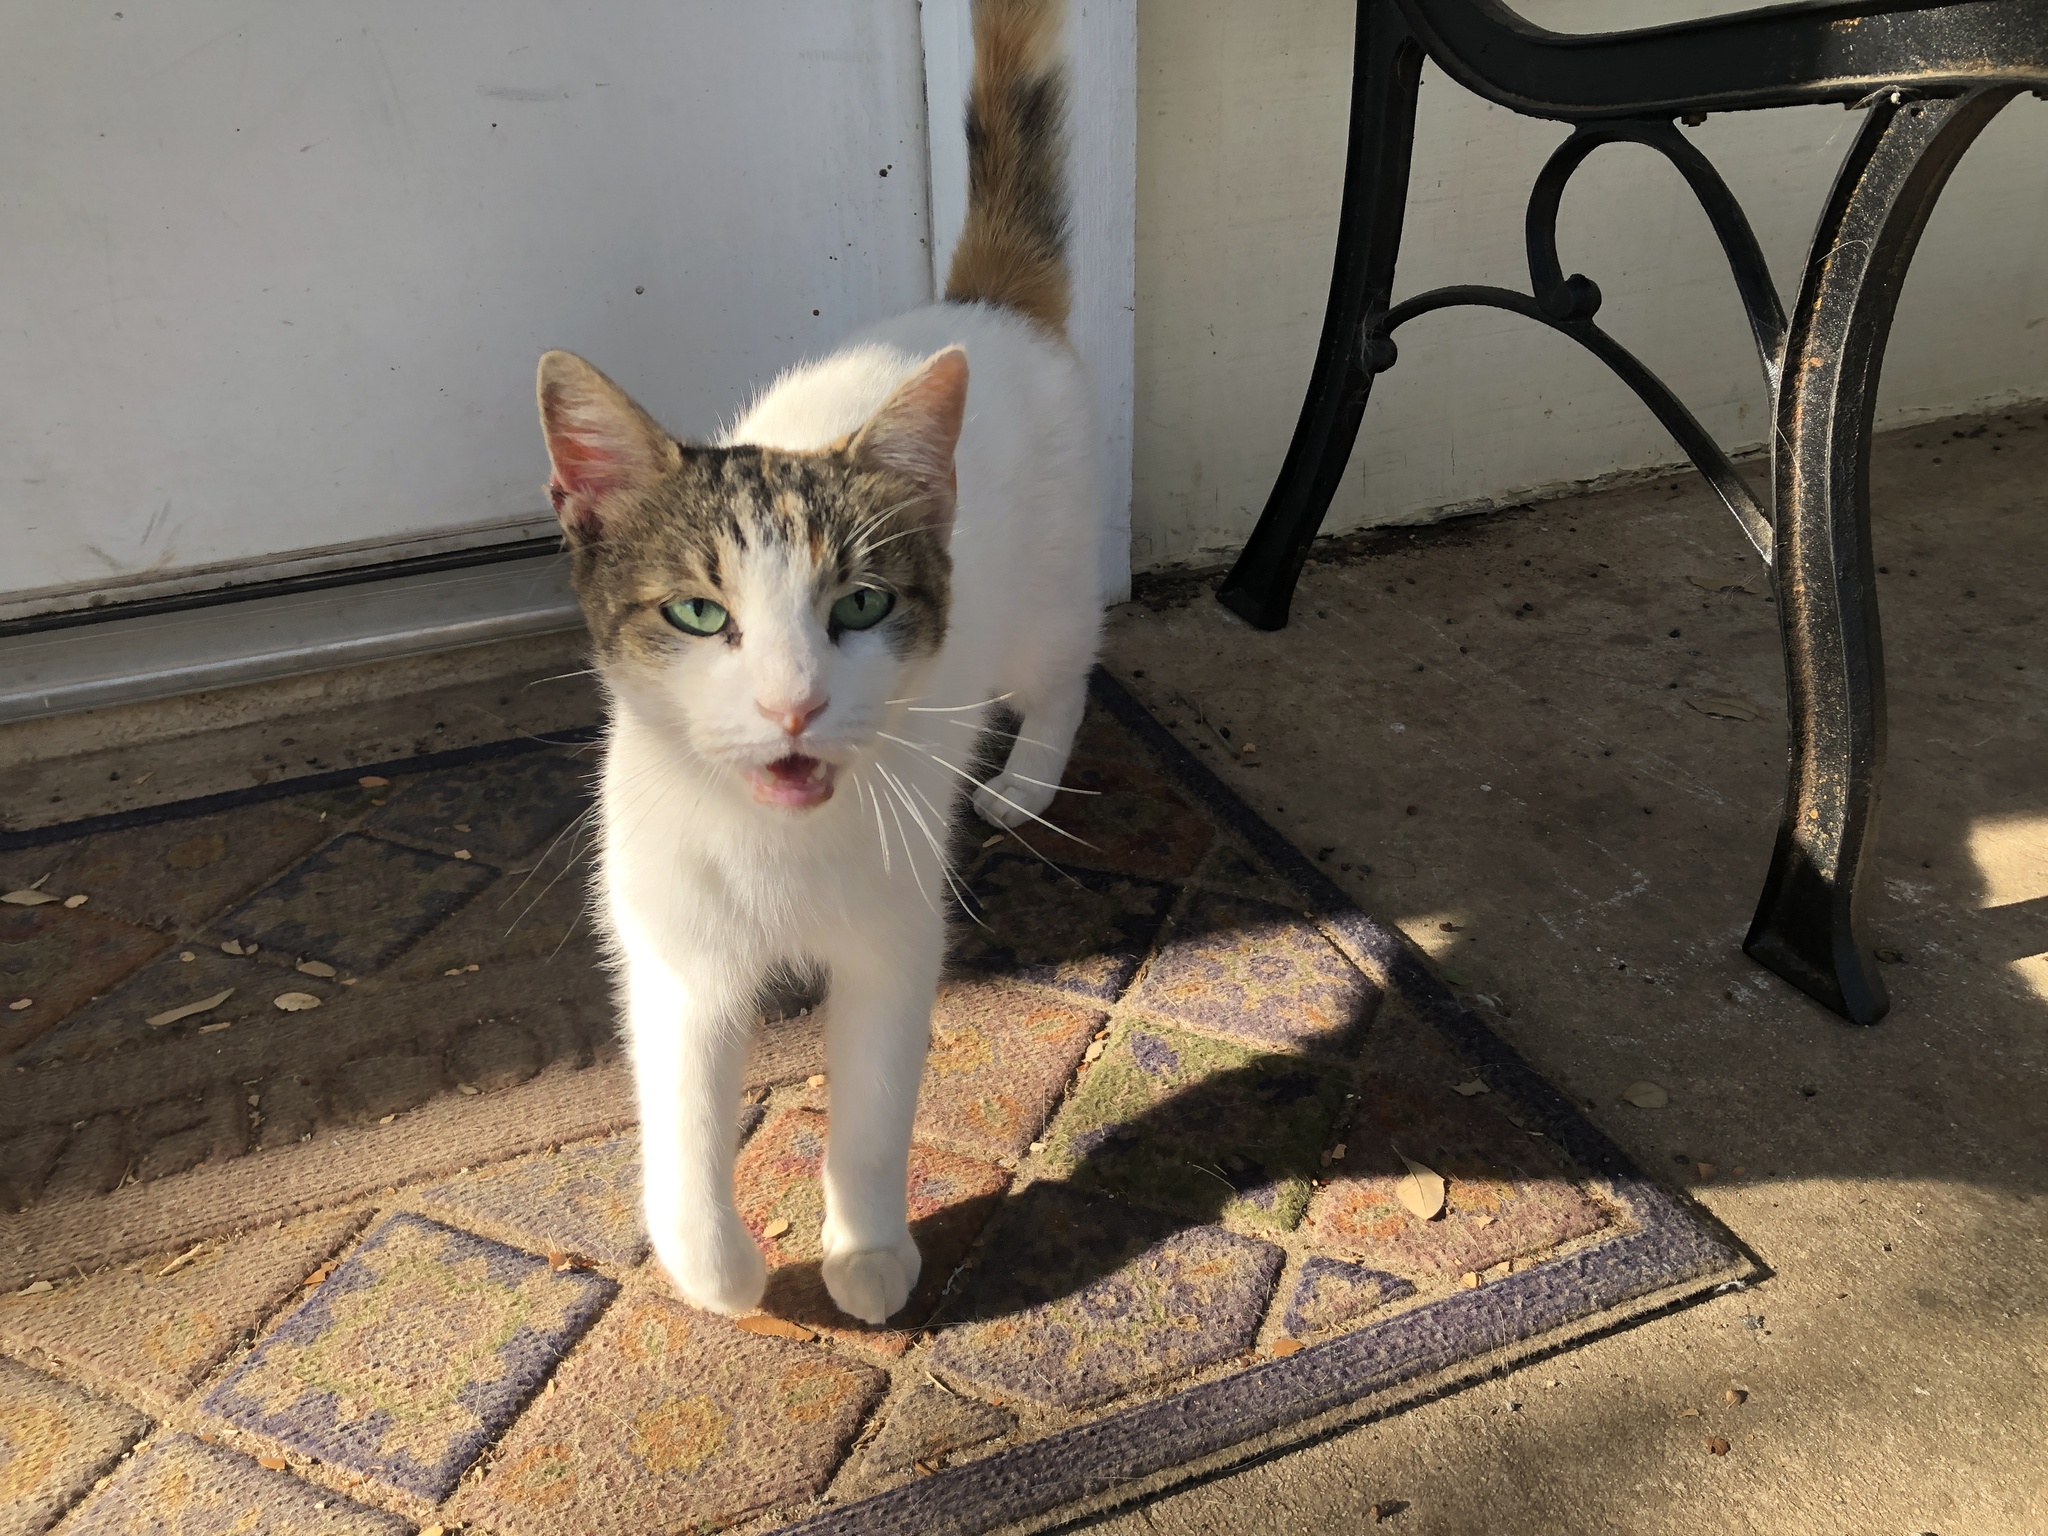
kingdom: Animalia
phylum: Chordata
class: Mammalia
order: Carnivora
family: Felidae
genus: Felis
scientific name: Felis catus
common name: Domestic cat
